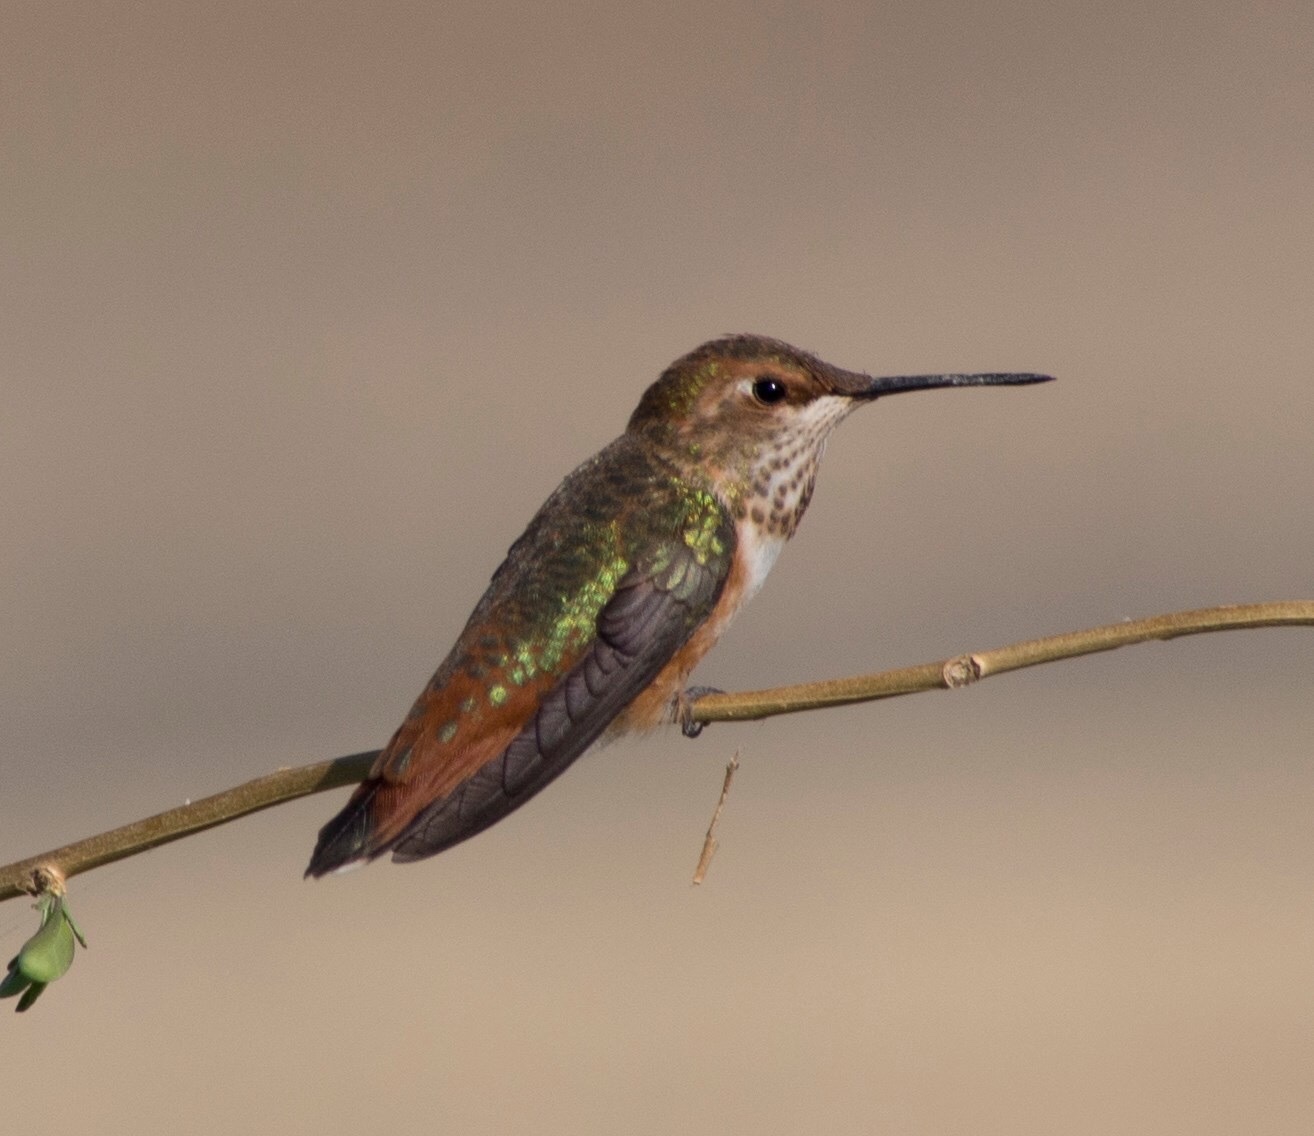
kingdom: Animalia
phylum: Chordata
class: Aves
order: Apodiformes
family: Trochilidae
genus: Selasphorus
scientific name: Selasphorus rufus
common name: Rufous hummingbird
